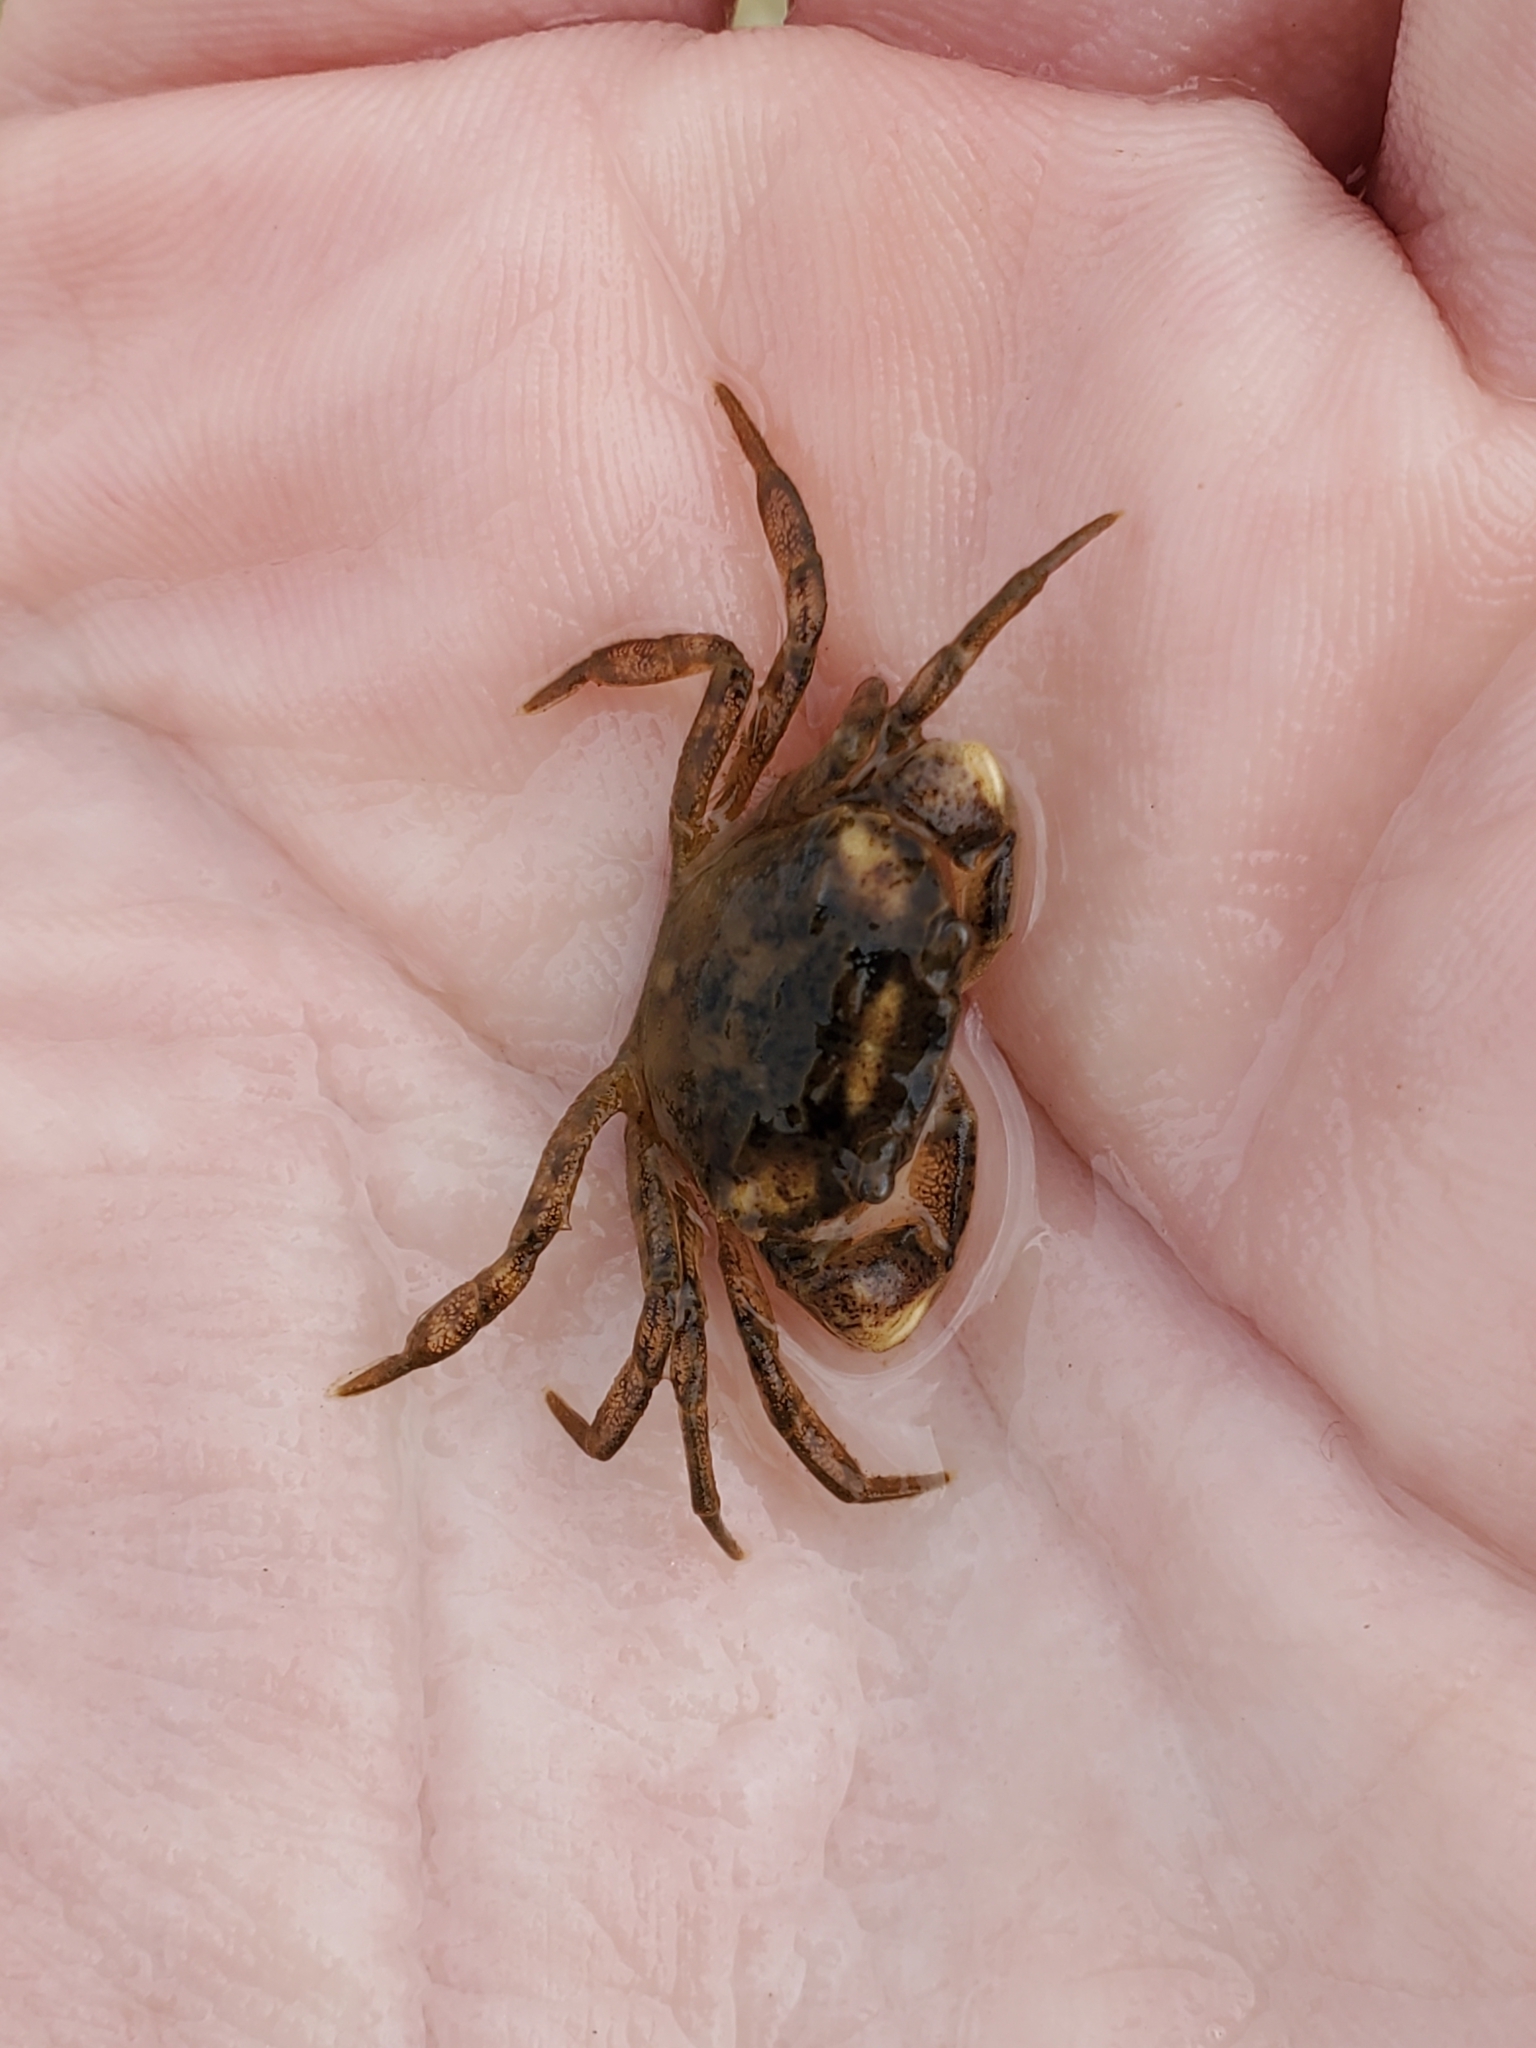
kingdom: Animalia
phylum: Arthropoda
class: Malacostraca
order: Decapoda
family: Panopeidae
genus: Rhithropanopeus
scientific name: Rhithropanopeus harrisii
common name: Dwarf crab
